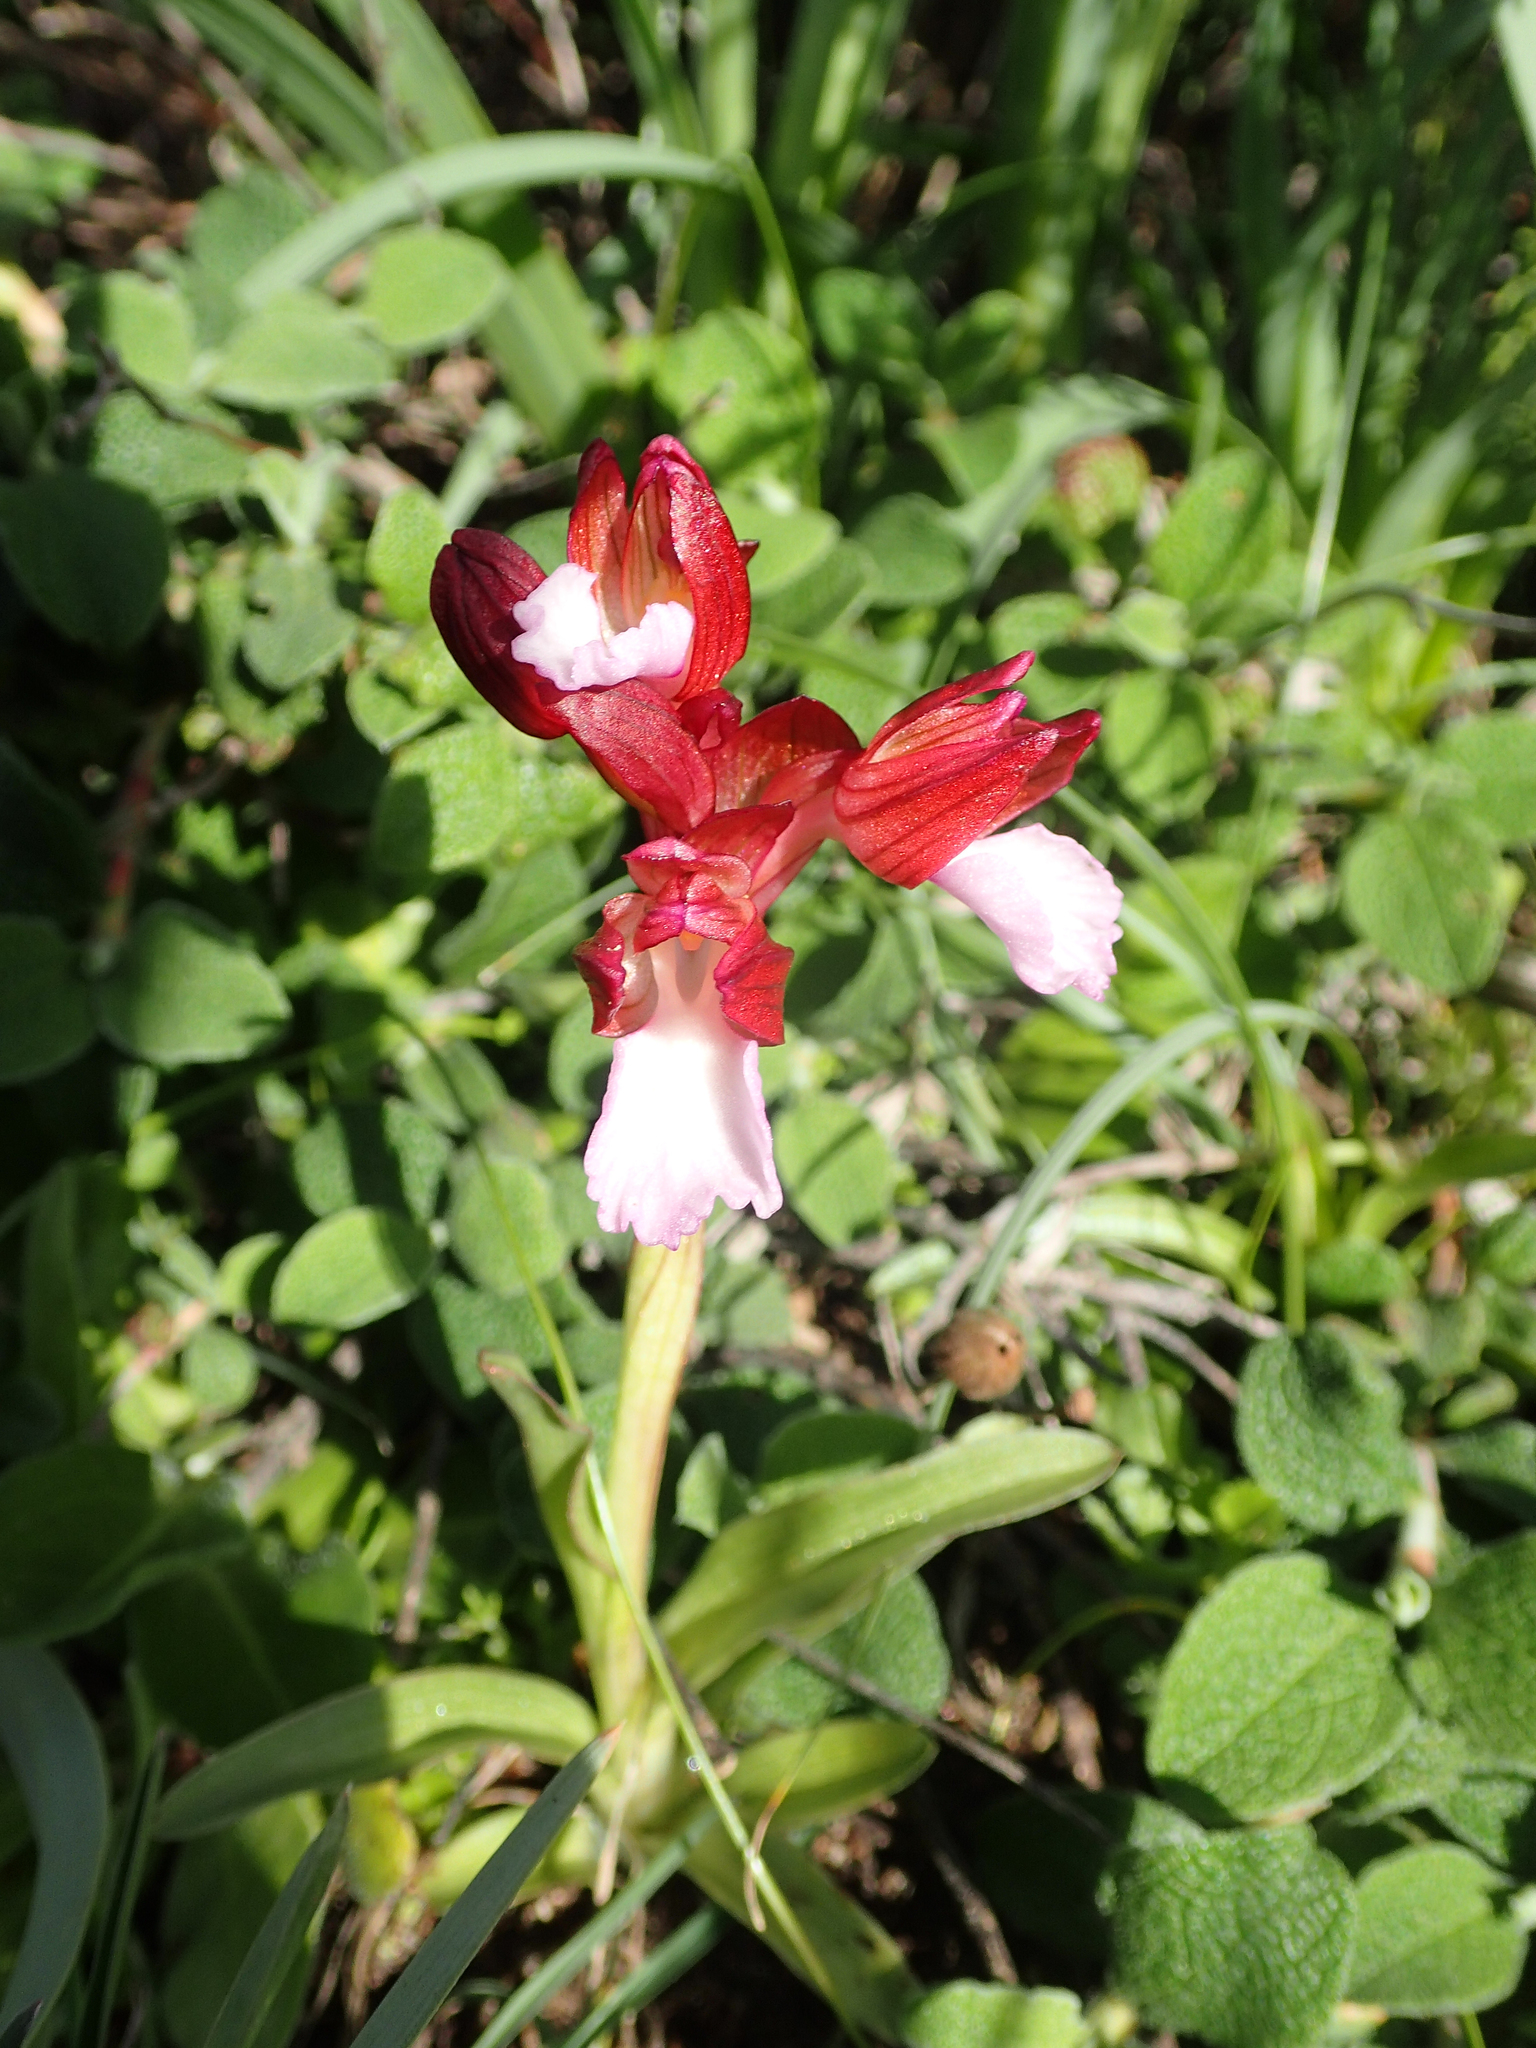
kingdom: Plantae
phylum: Tracheophyta
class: Liliopsida
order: Asparagales
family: Orchidaceae
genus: Anacamptis
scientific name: Anacamptis papilionacea
